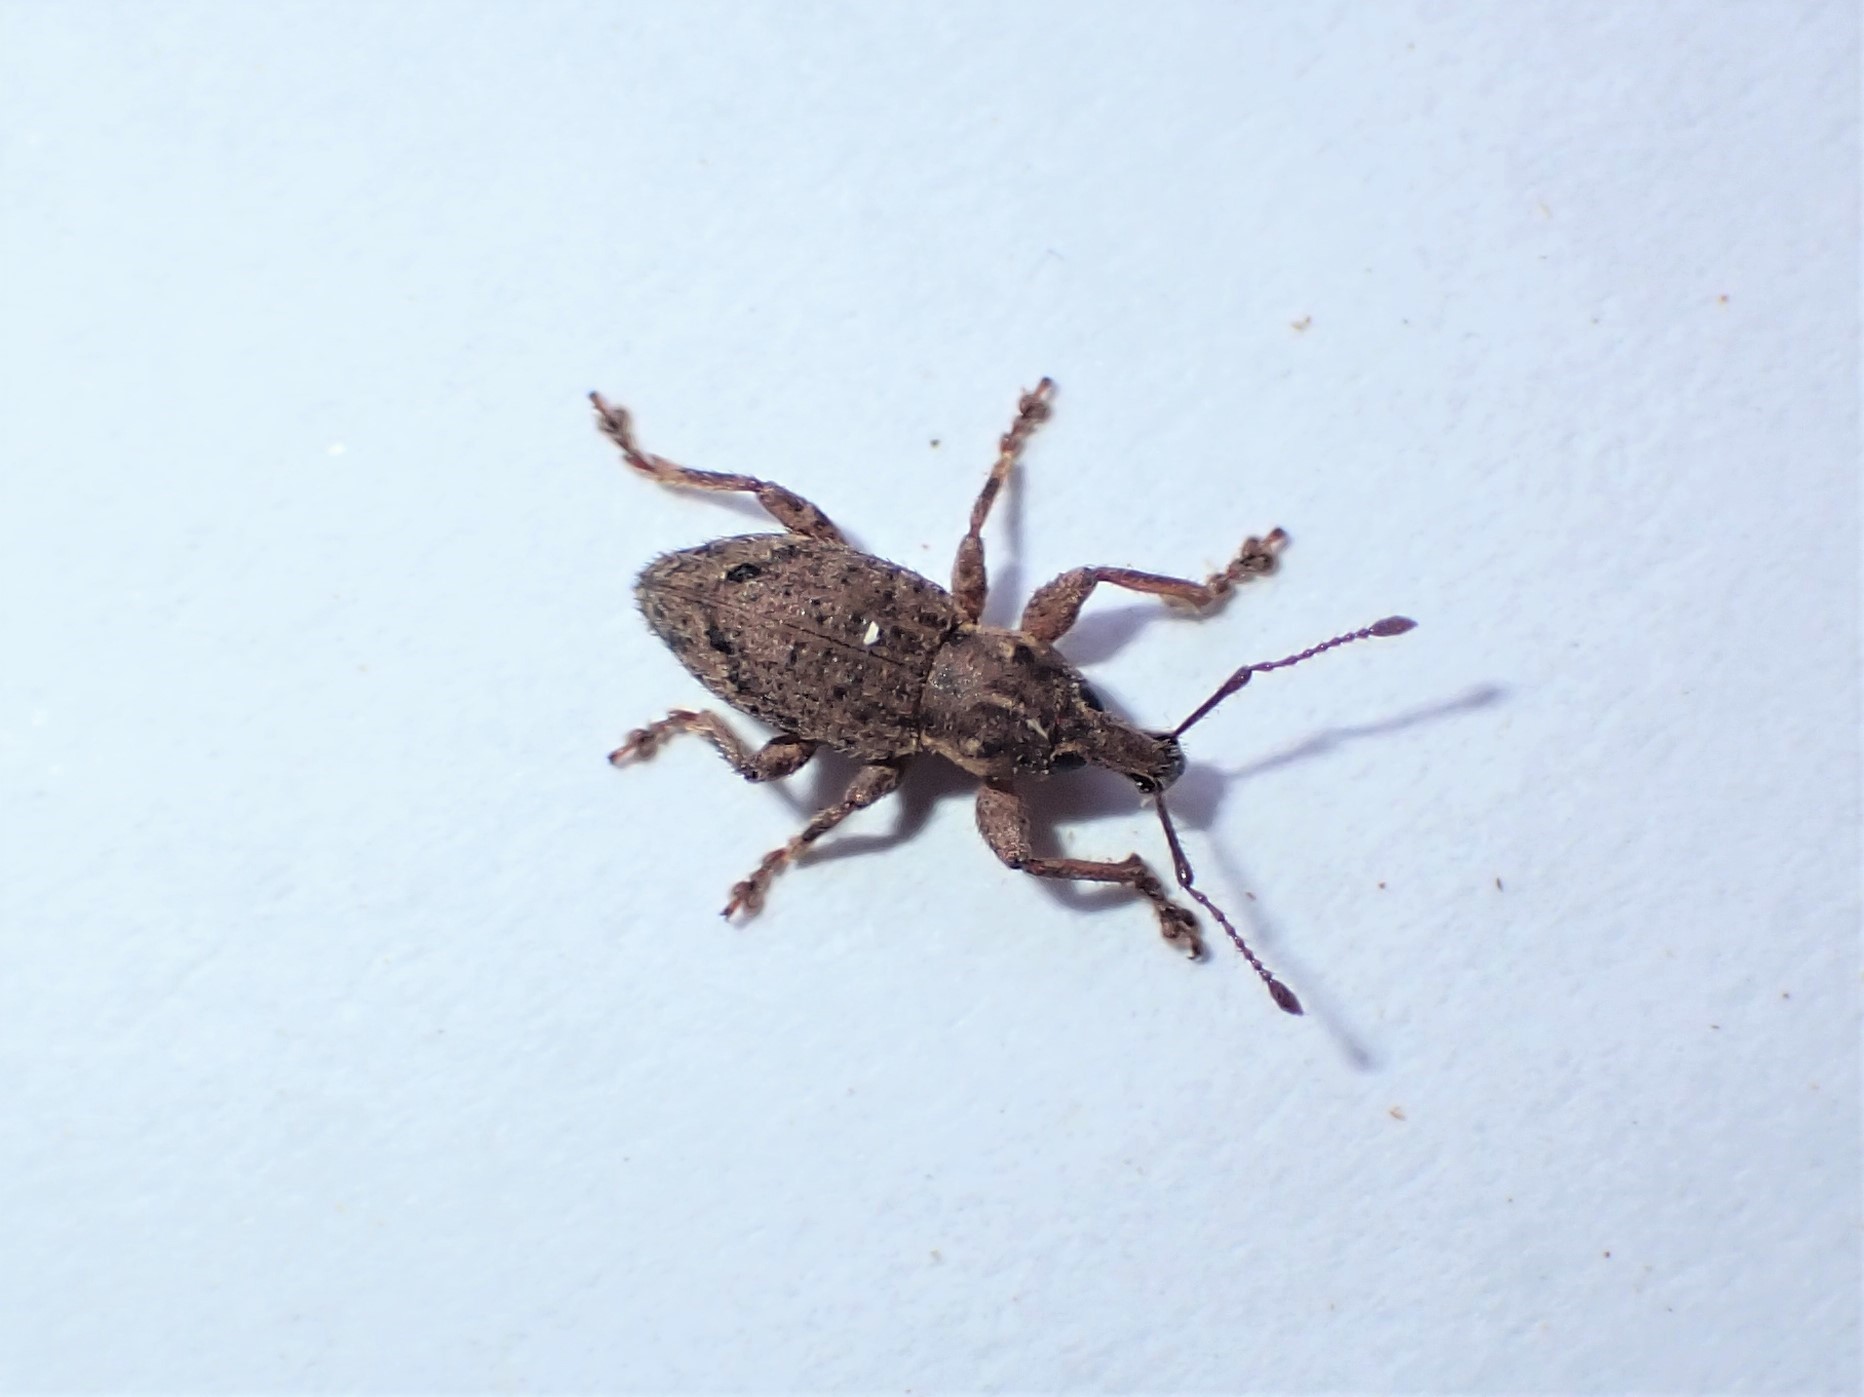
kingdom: Animalia
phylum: Arthropoda
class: Insecta
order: Coleoptera
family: Curculionidae
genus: Chalepistes
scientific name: Chalepistes compressus
